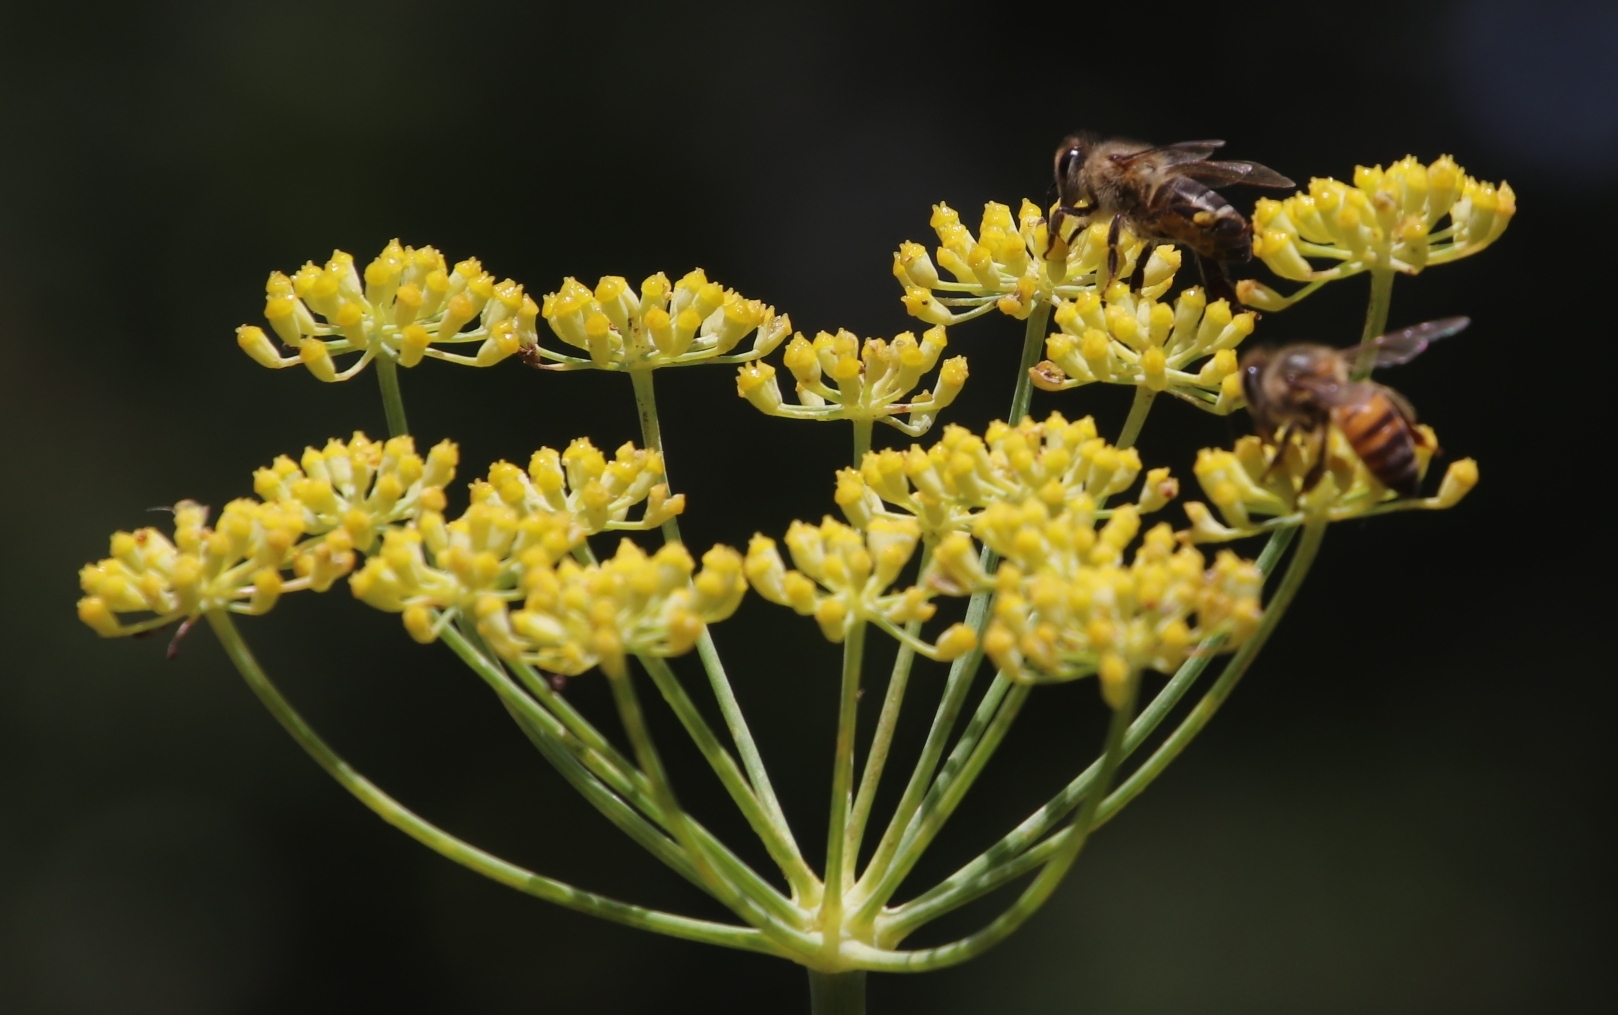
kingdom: Animalia
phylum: Arthropoda
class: Insecta
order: Hymenoptera
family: Apidae
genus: Apis
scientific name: Apis mellifera
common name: Honey bee
